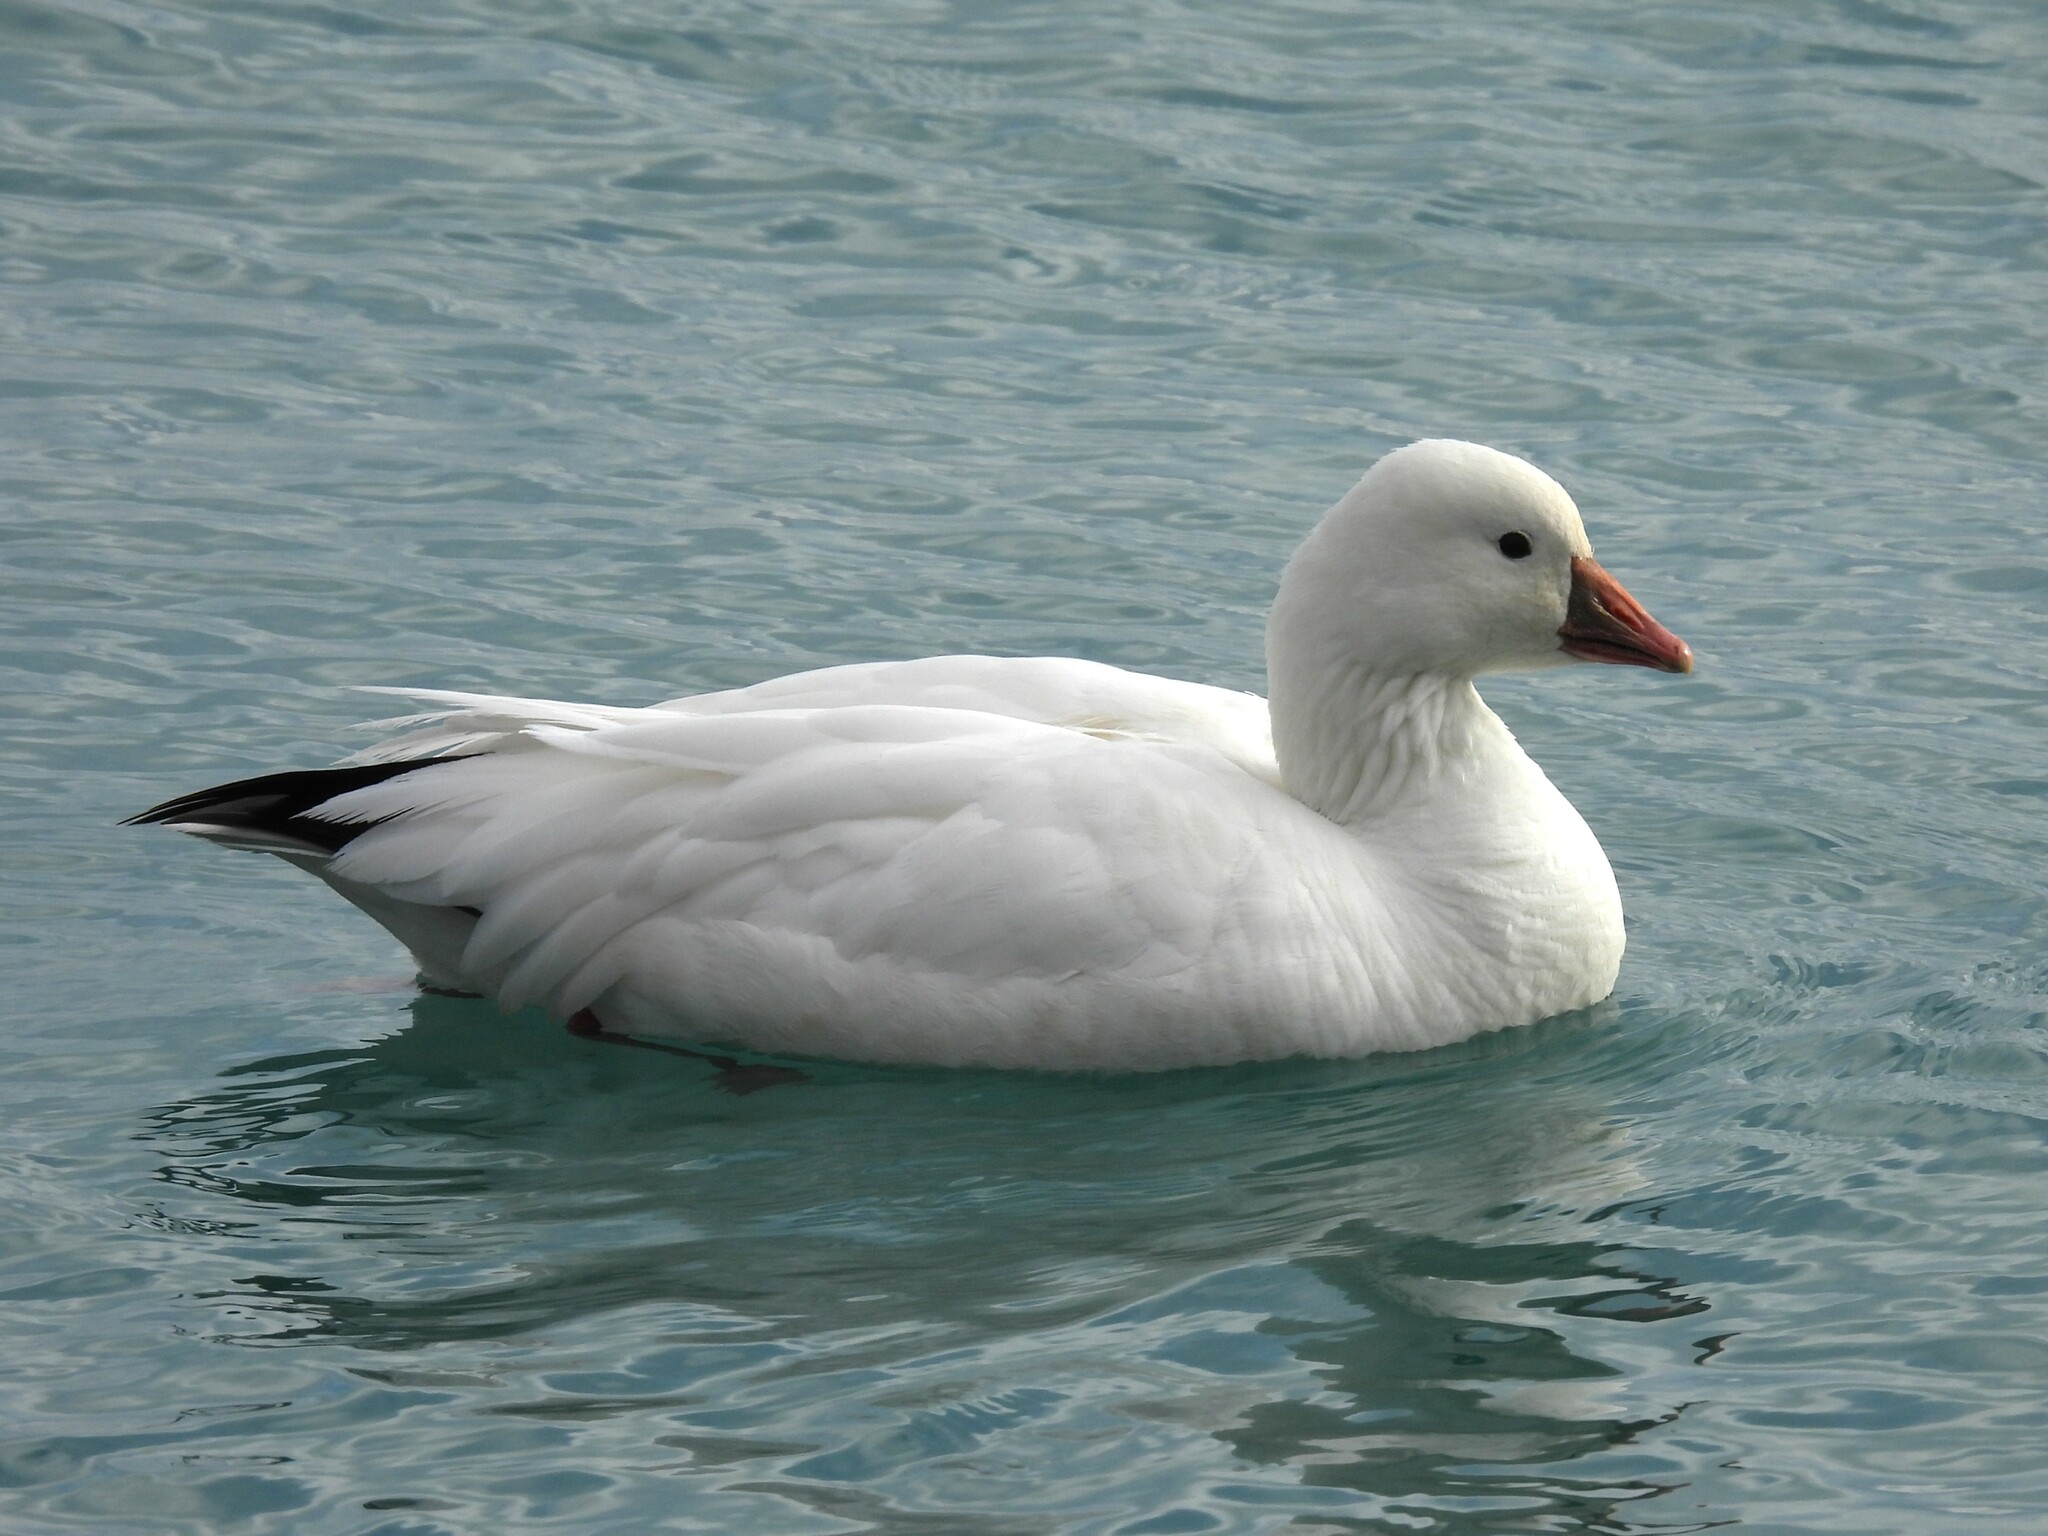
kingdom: Animalia
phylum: Chordata
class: Aves
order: Anseriformes
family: Anatidae
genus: Anser
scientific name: Anser rossii
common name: Ross's goose
